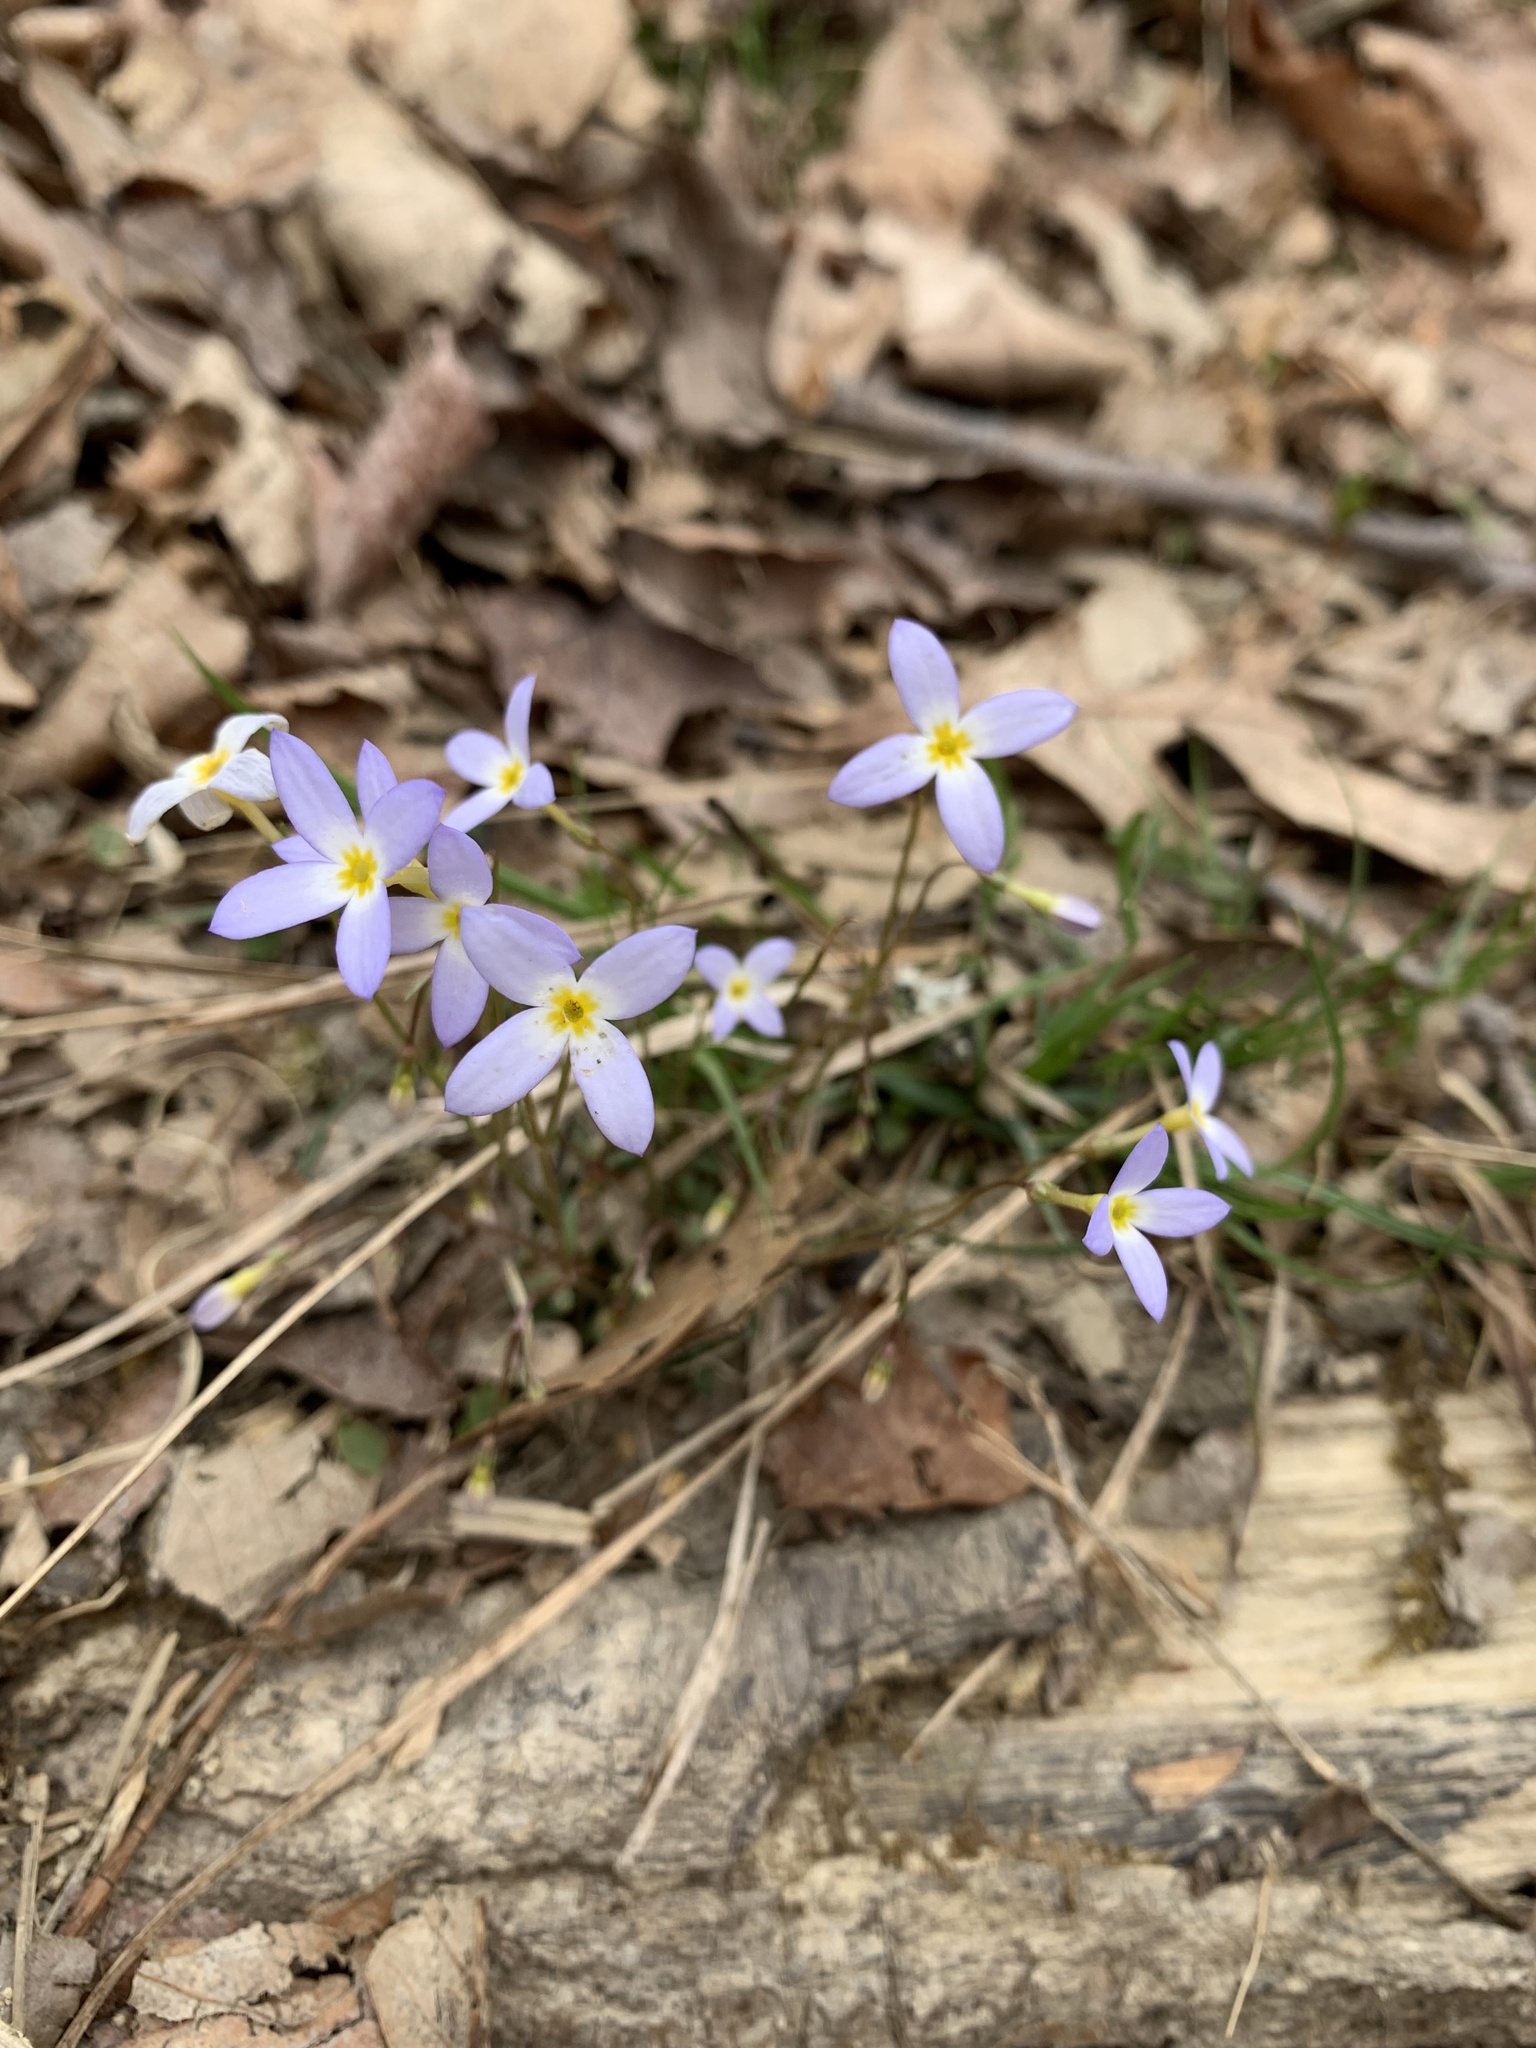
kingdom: Plantae
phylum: Tracheophyta
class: Magnoliopsida
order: Gentianales
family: Rubiaceae
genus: Houstonia
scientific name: Houstonia caerulea
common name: Bluets
